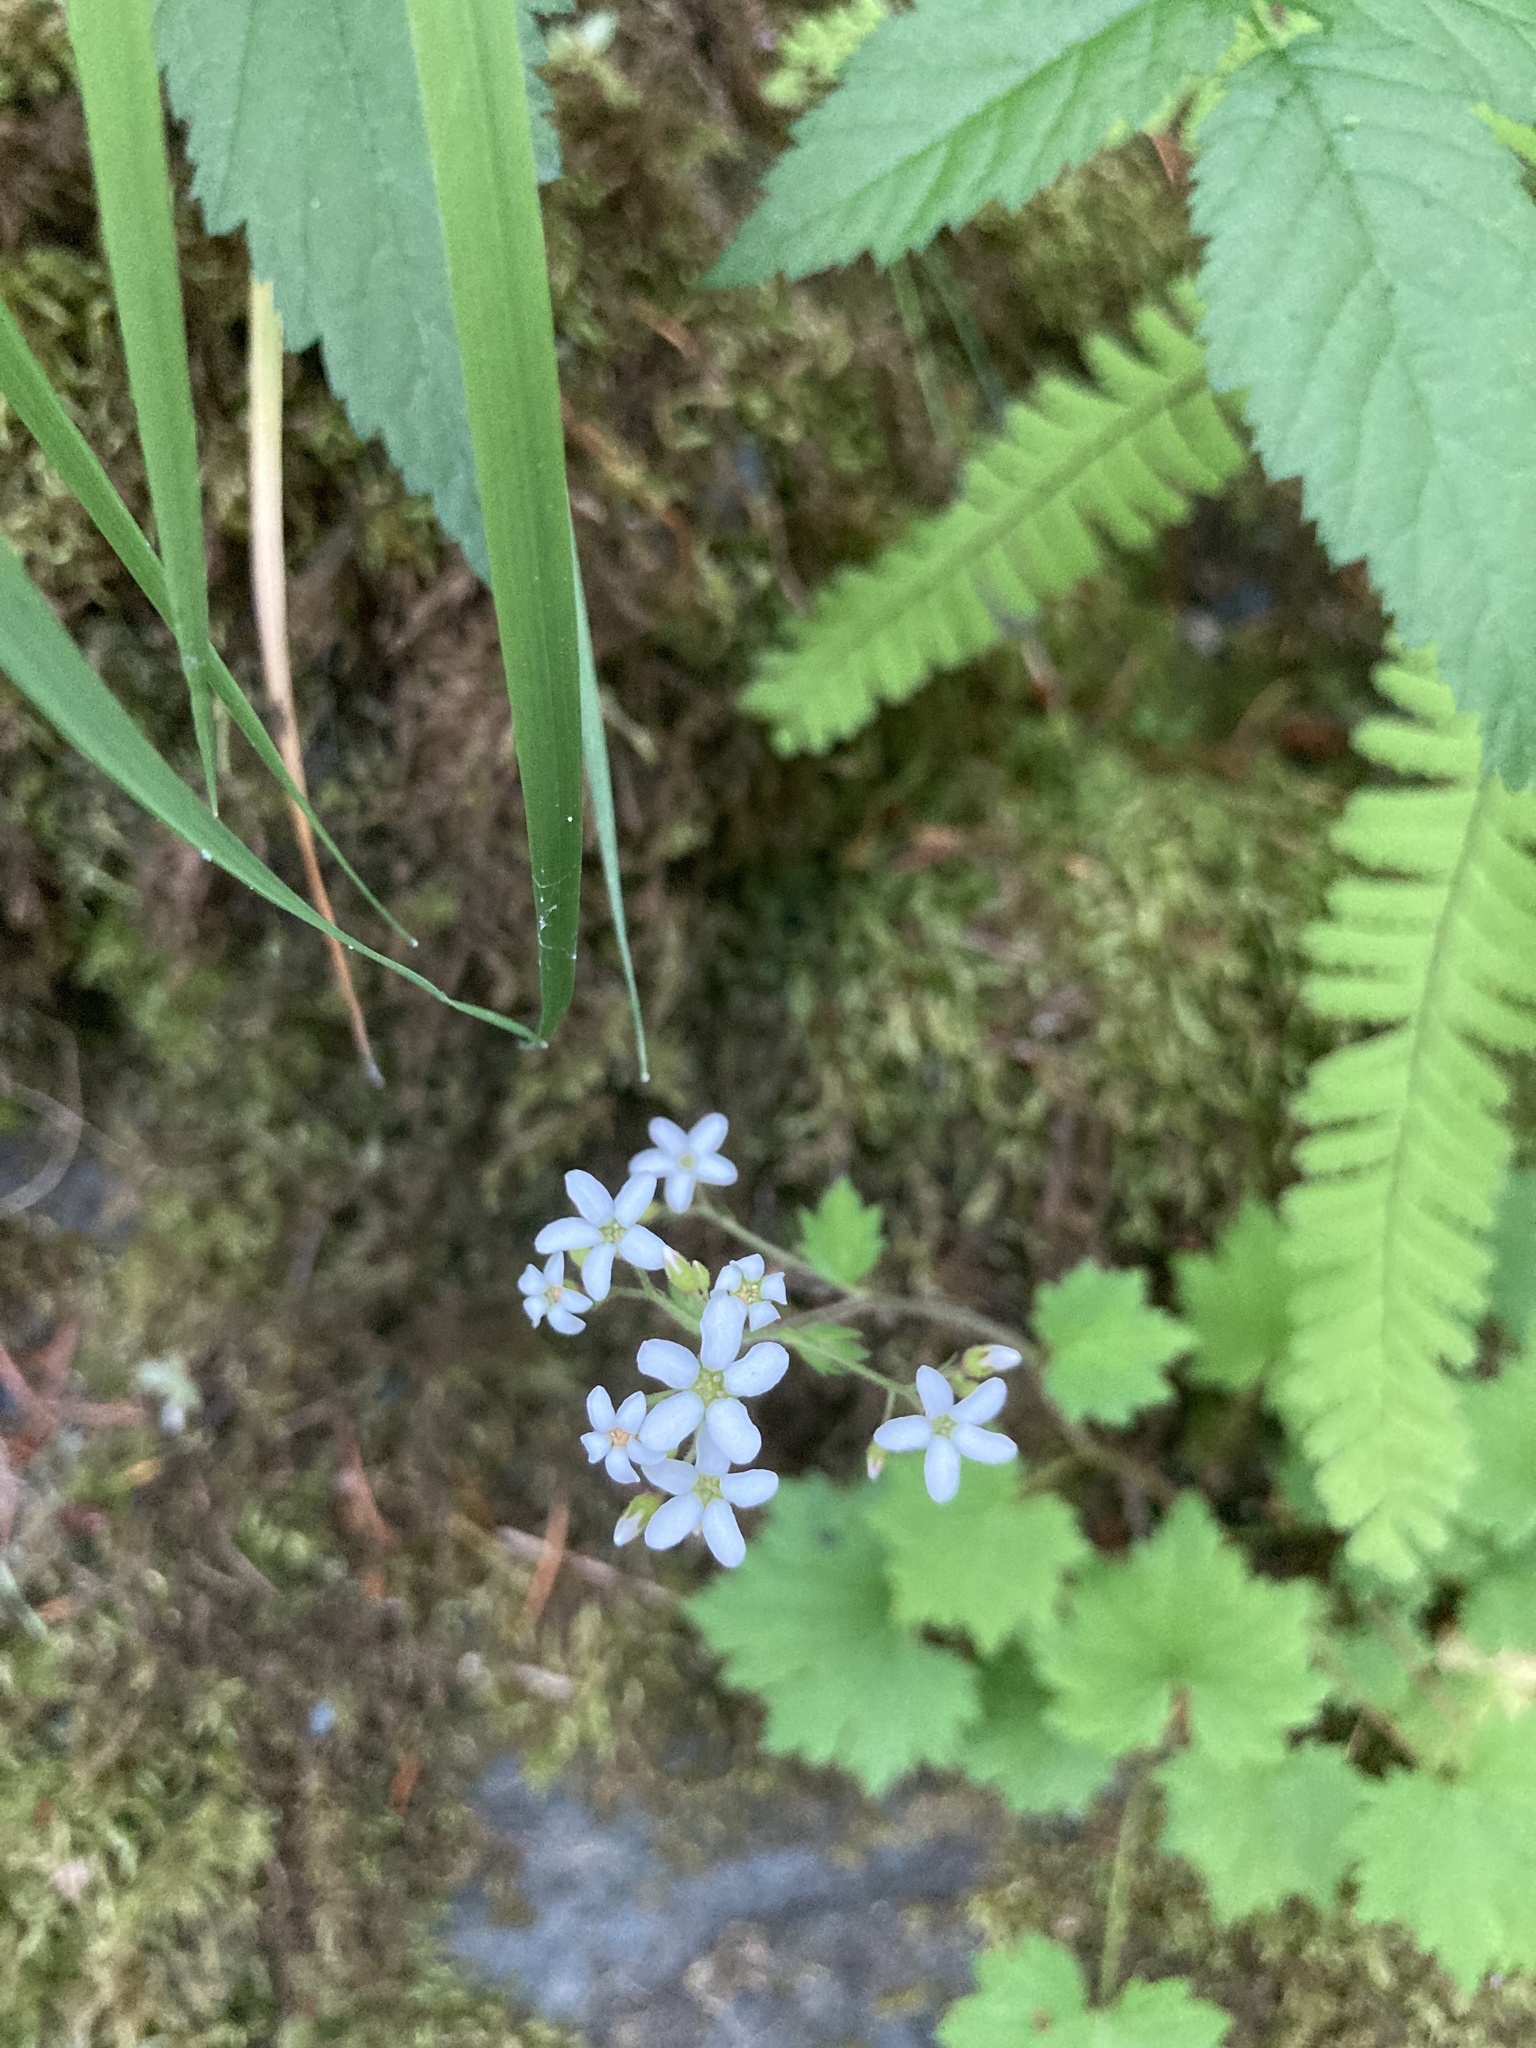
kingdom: Plantae
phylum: Tracheophyta
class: Magnoliopsida
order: Saxifragales
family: Saxifragaceae
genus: Boykinia
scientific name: Boykinia occidentalis
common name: Coast boykinia
